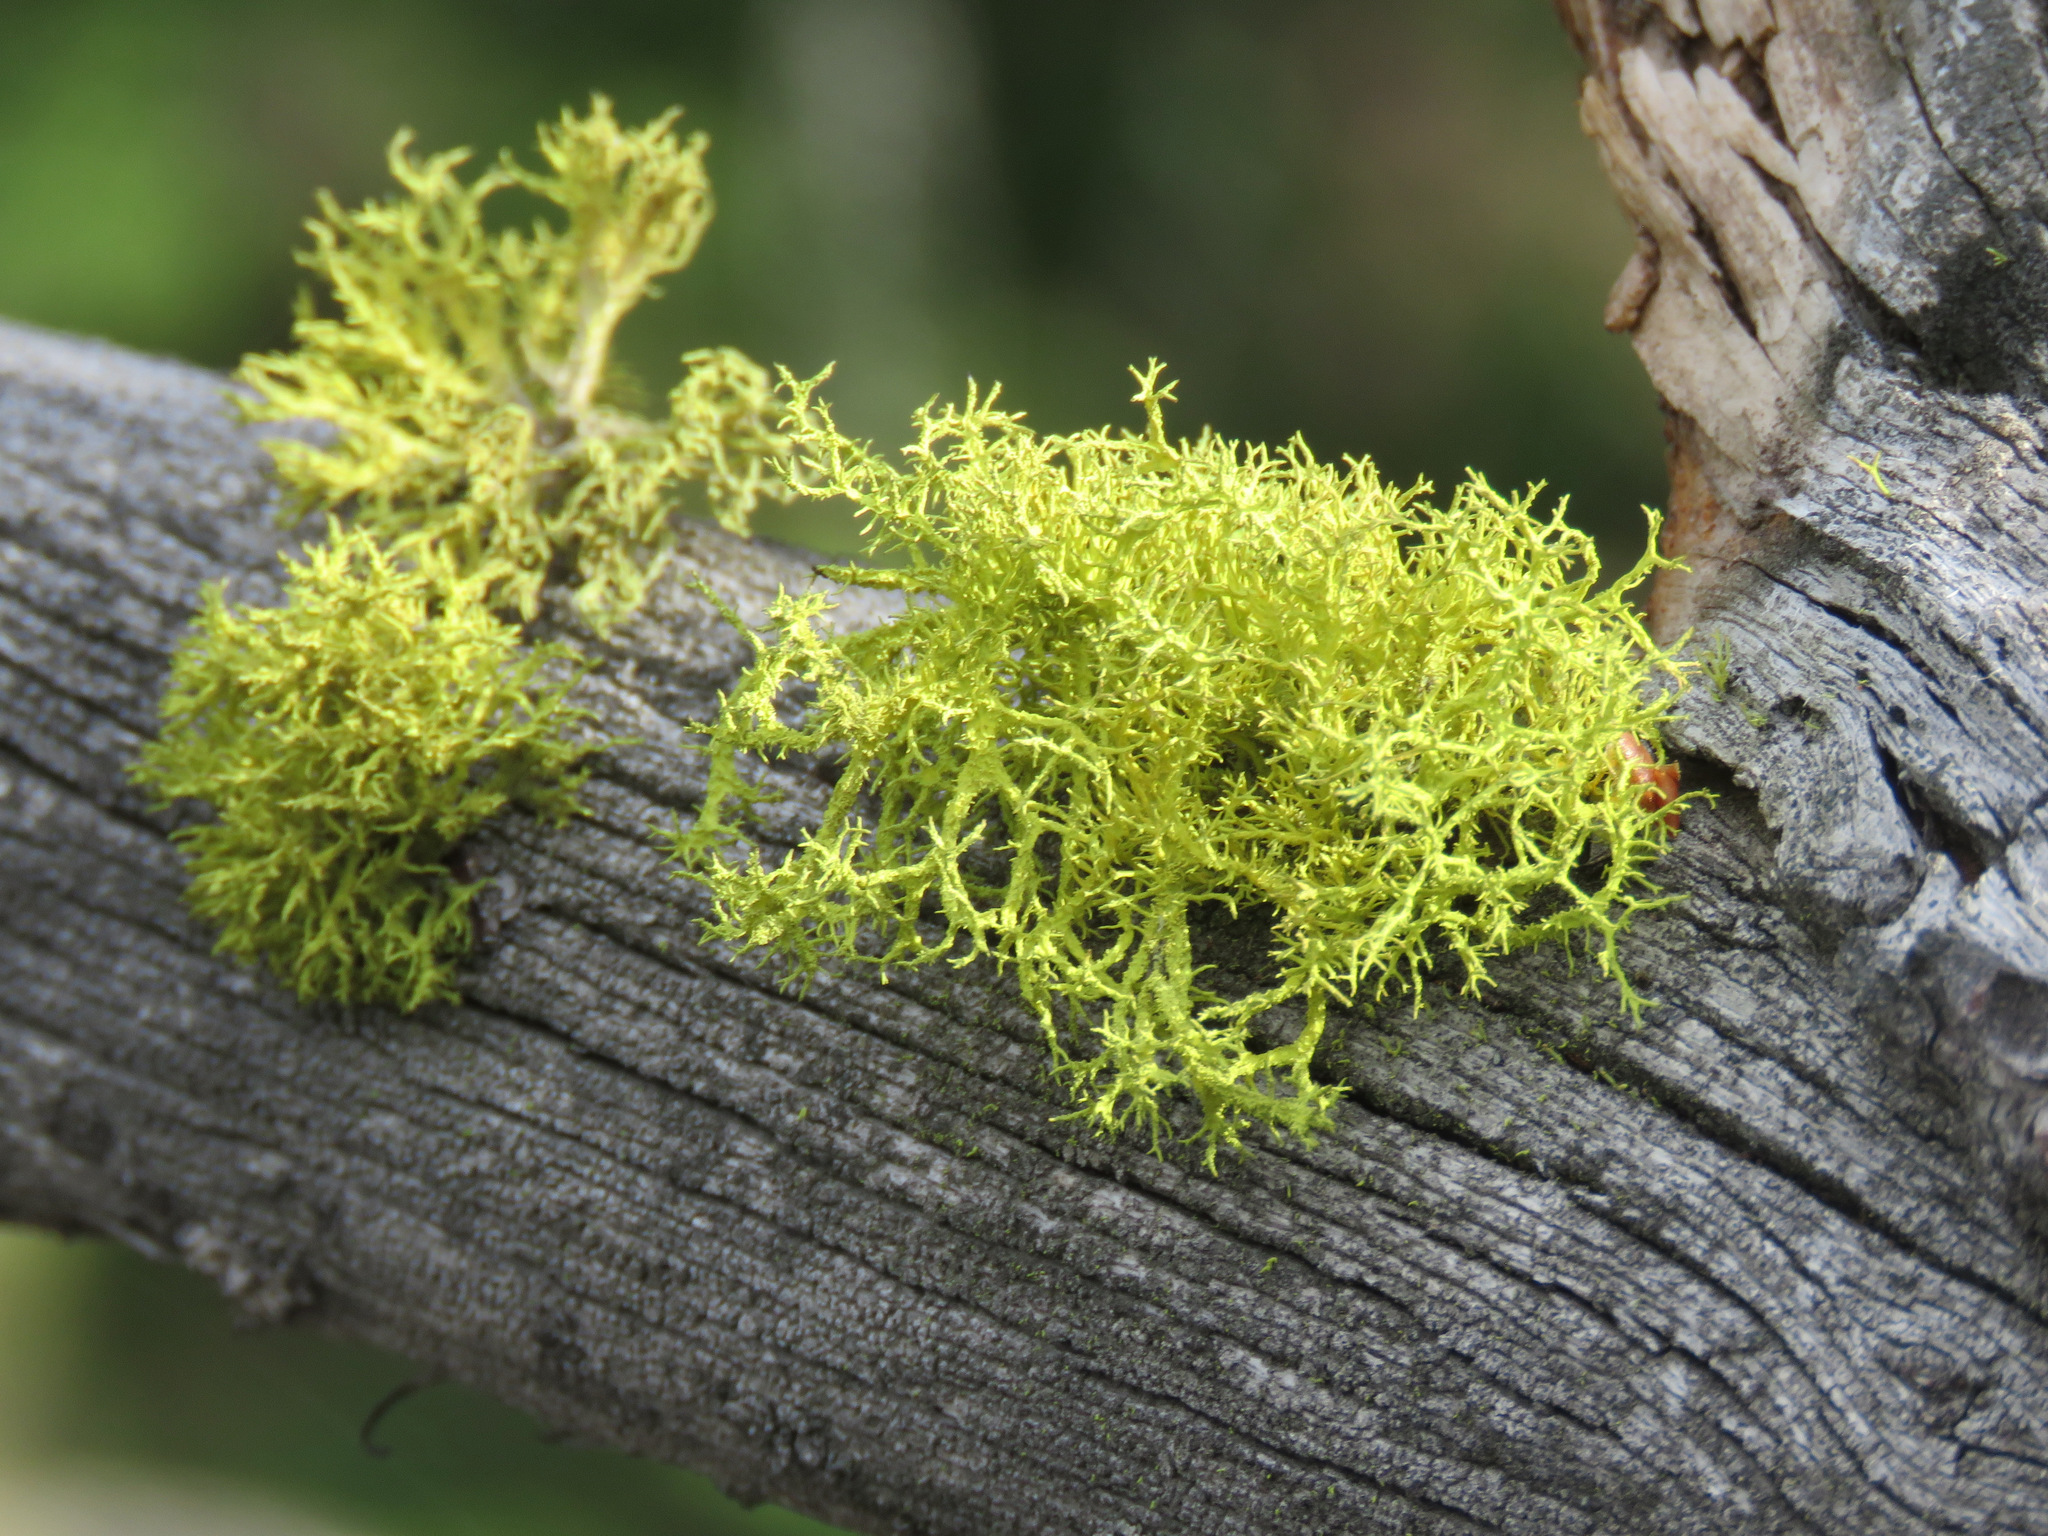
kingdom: Fungi
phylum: Ascomycota
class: Lecanoromycetes
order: Lecanorales
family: Parmeliaceae
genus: Letharia
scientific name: Letharia vulpina
